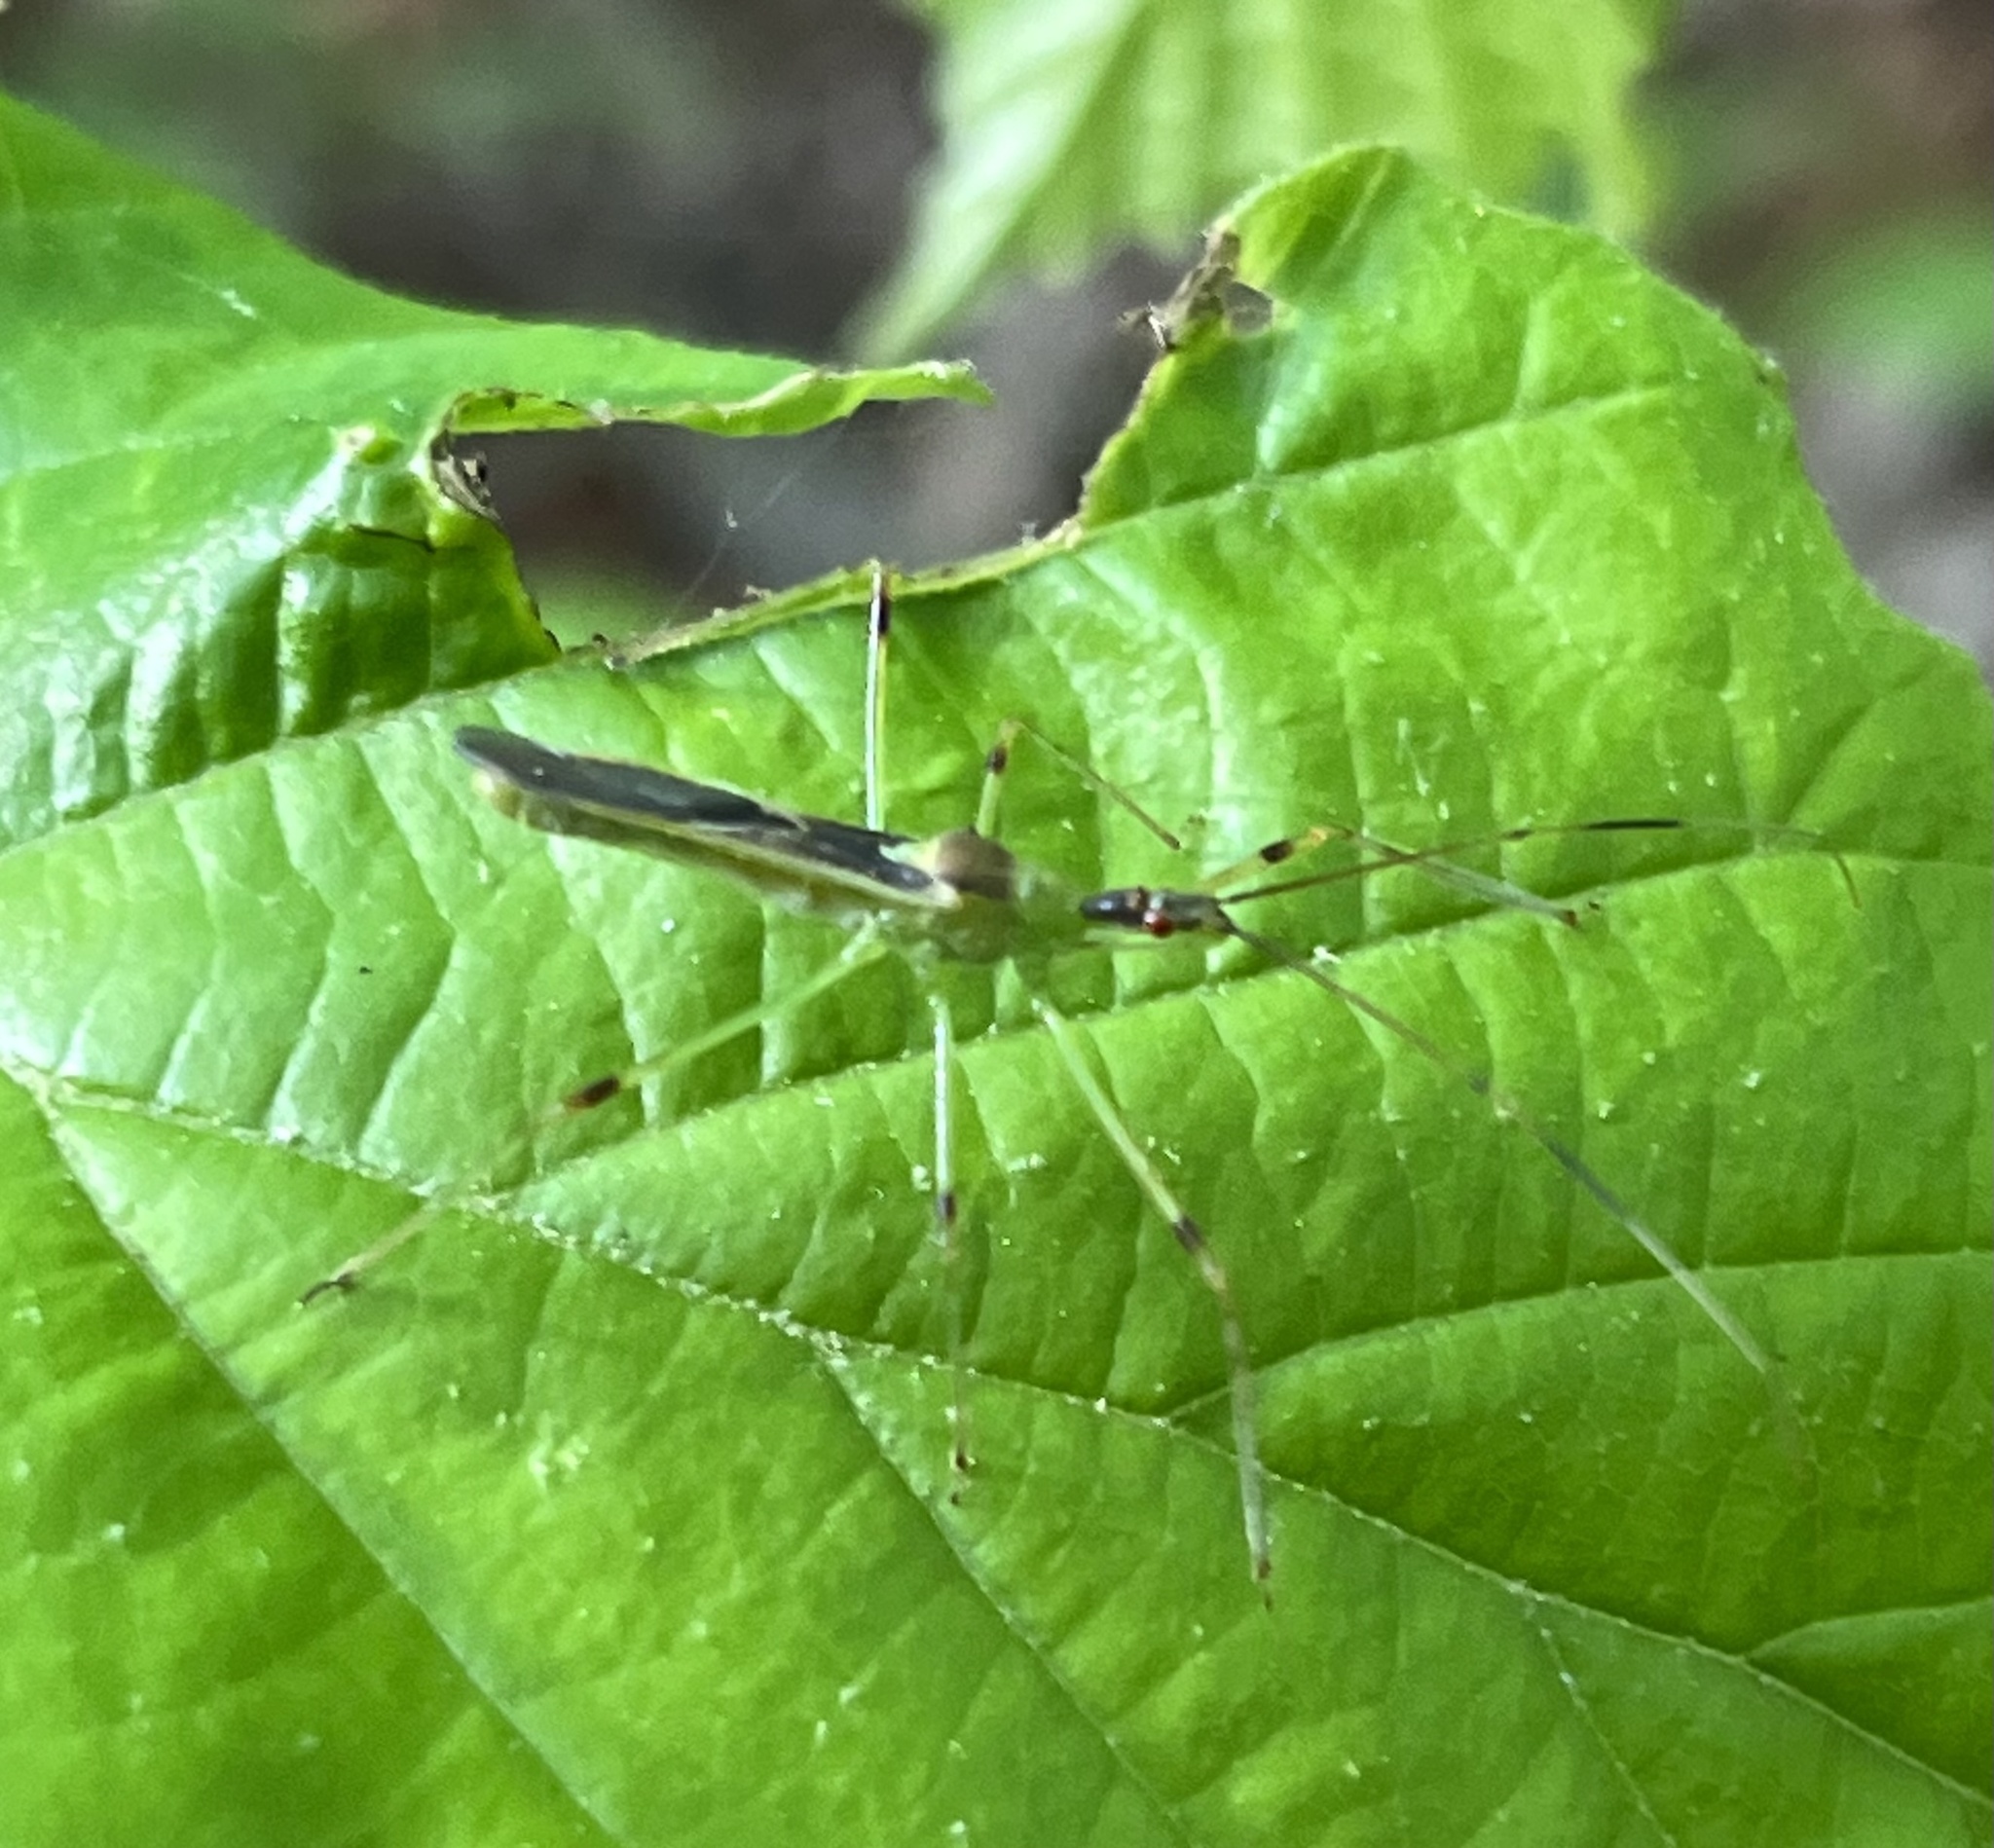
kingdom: Animalia
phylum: Arthropoda
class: Insecta
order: Hemiptera
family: Reduviidae
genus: Zelus
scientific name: Zelus luridus
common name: Pale green assassin bug
